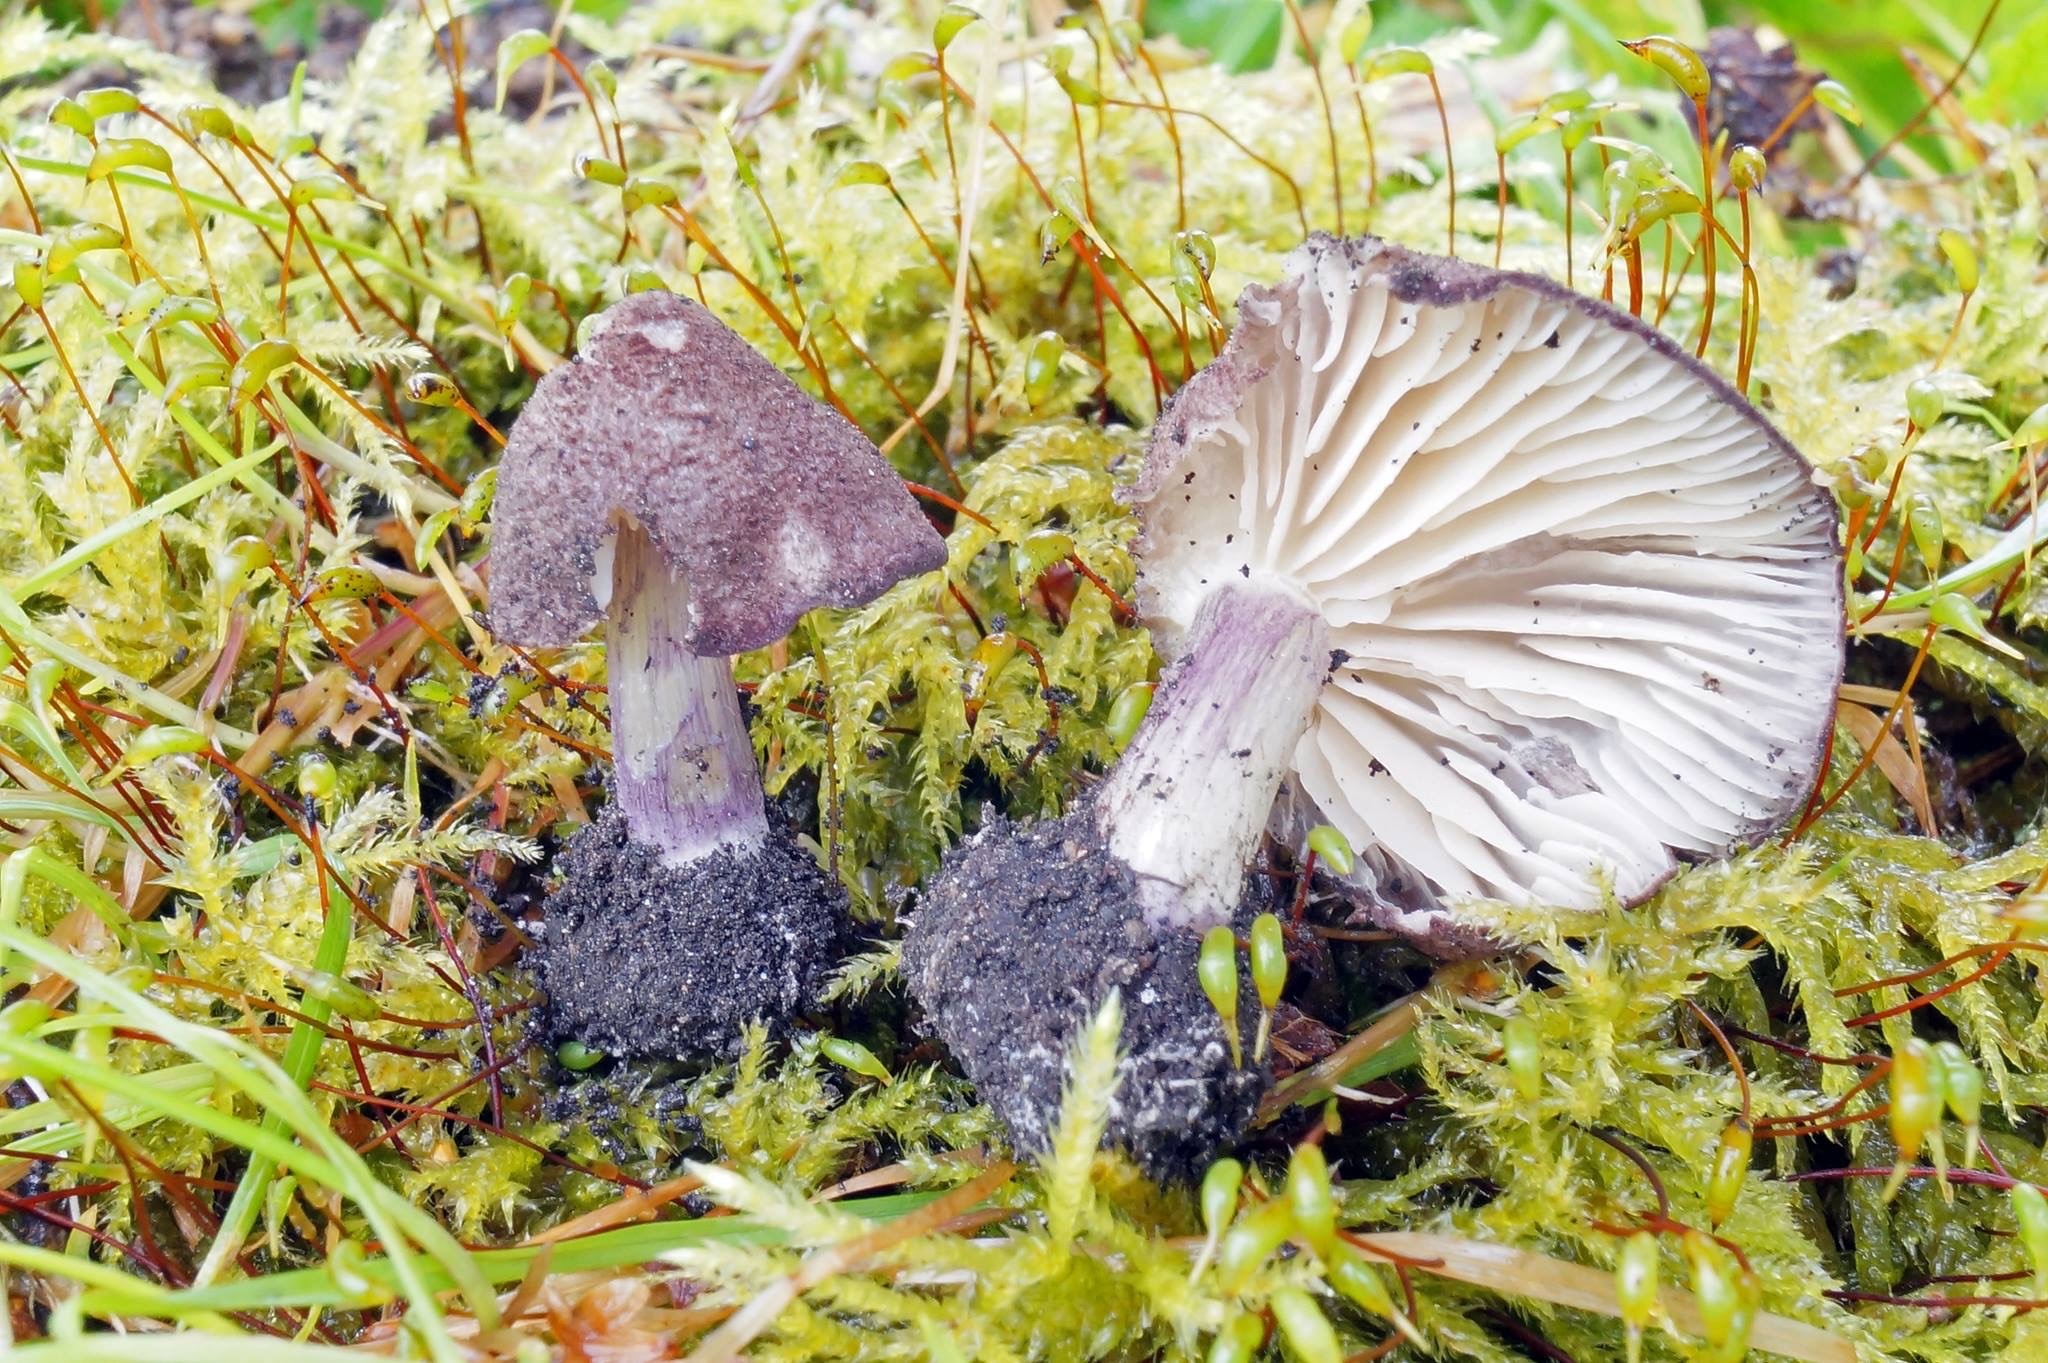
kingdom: Fungi
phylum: Basidiomycota
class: Agaricomycetes
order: Agaricales
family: Entolomataceae
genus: Entoloma
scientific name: Entoloma allochroum
